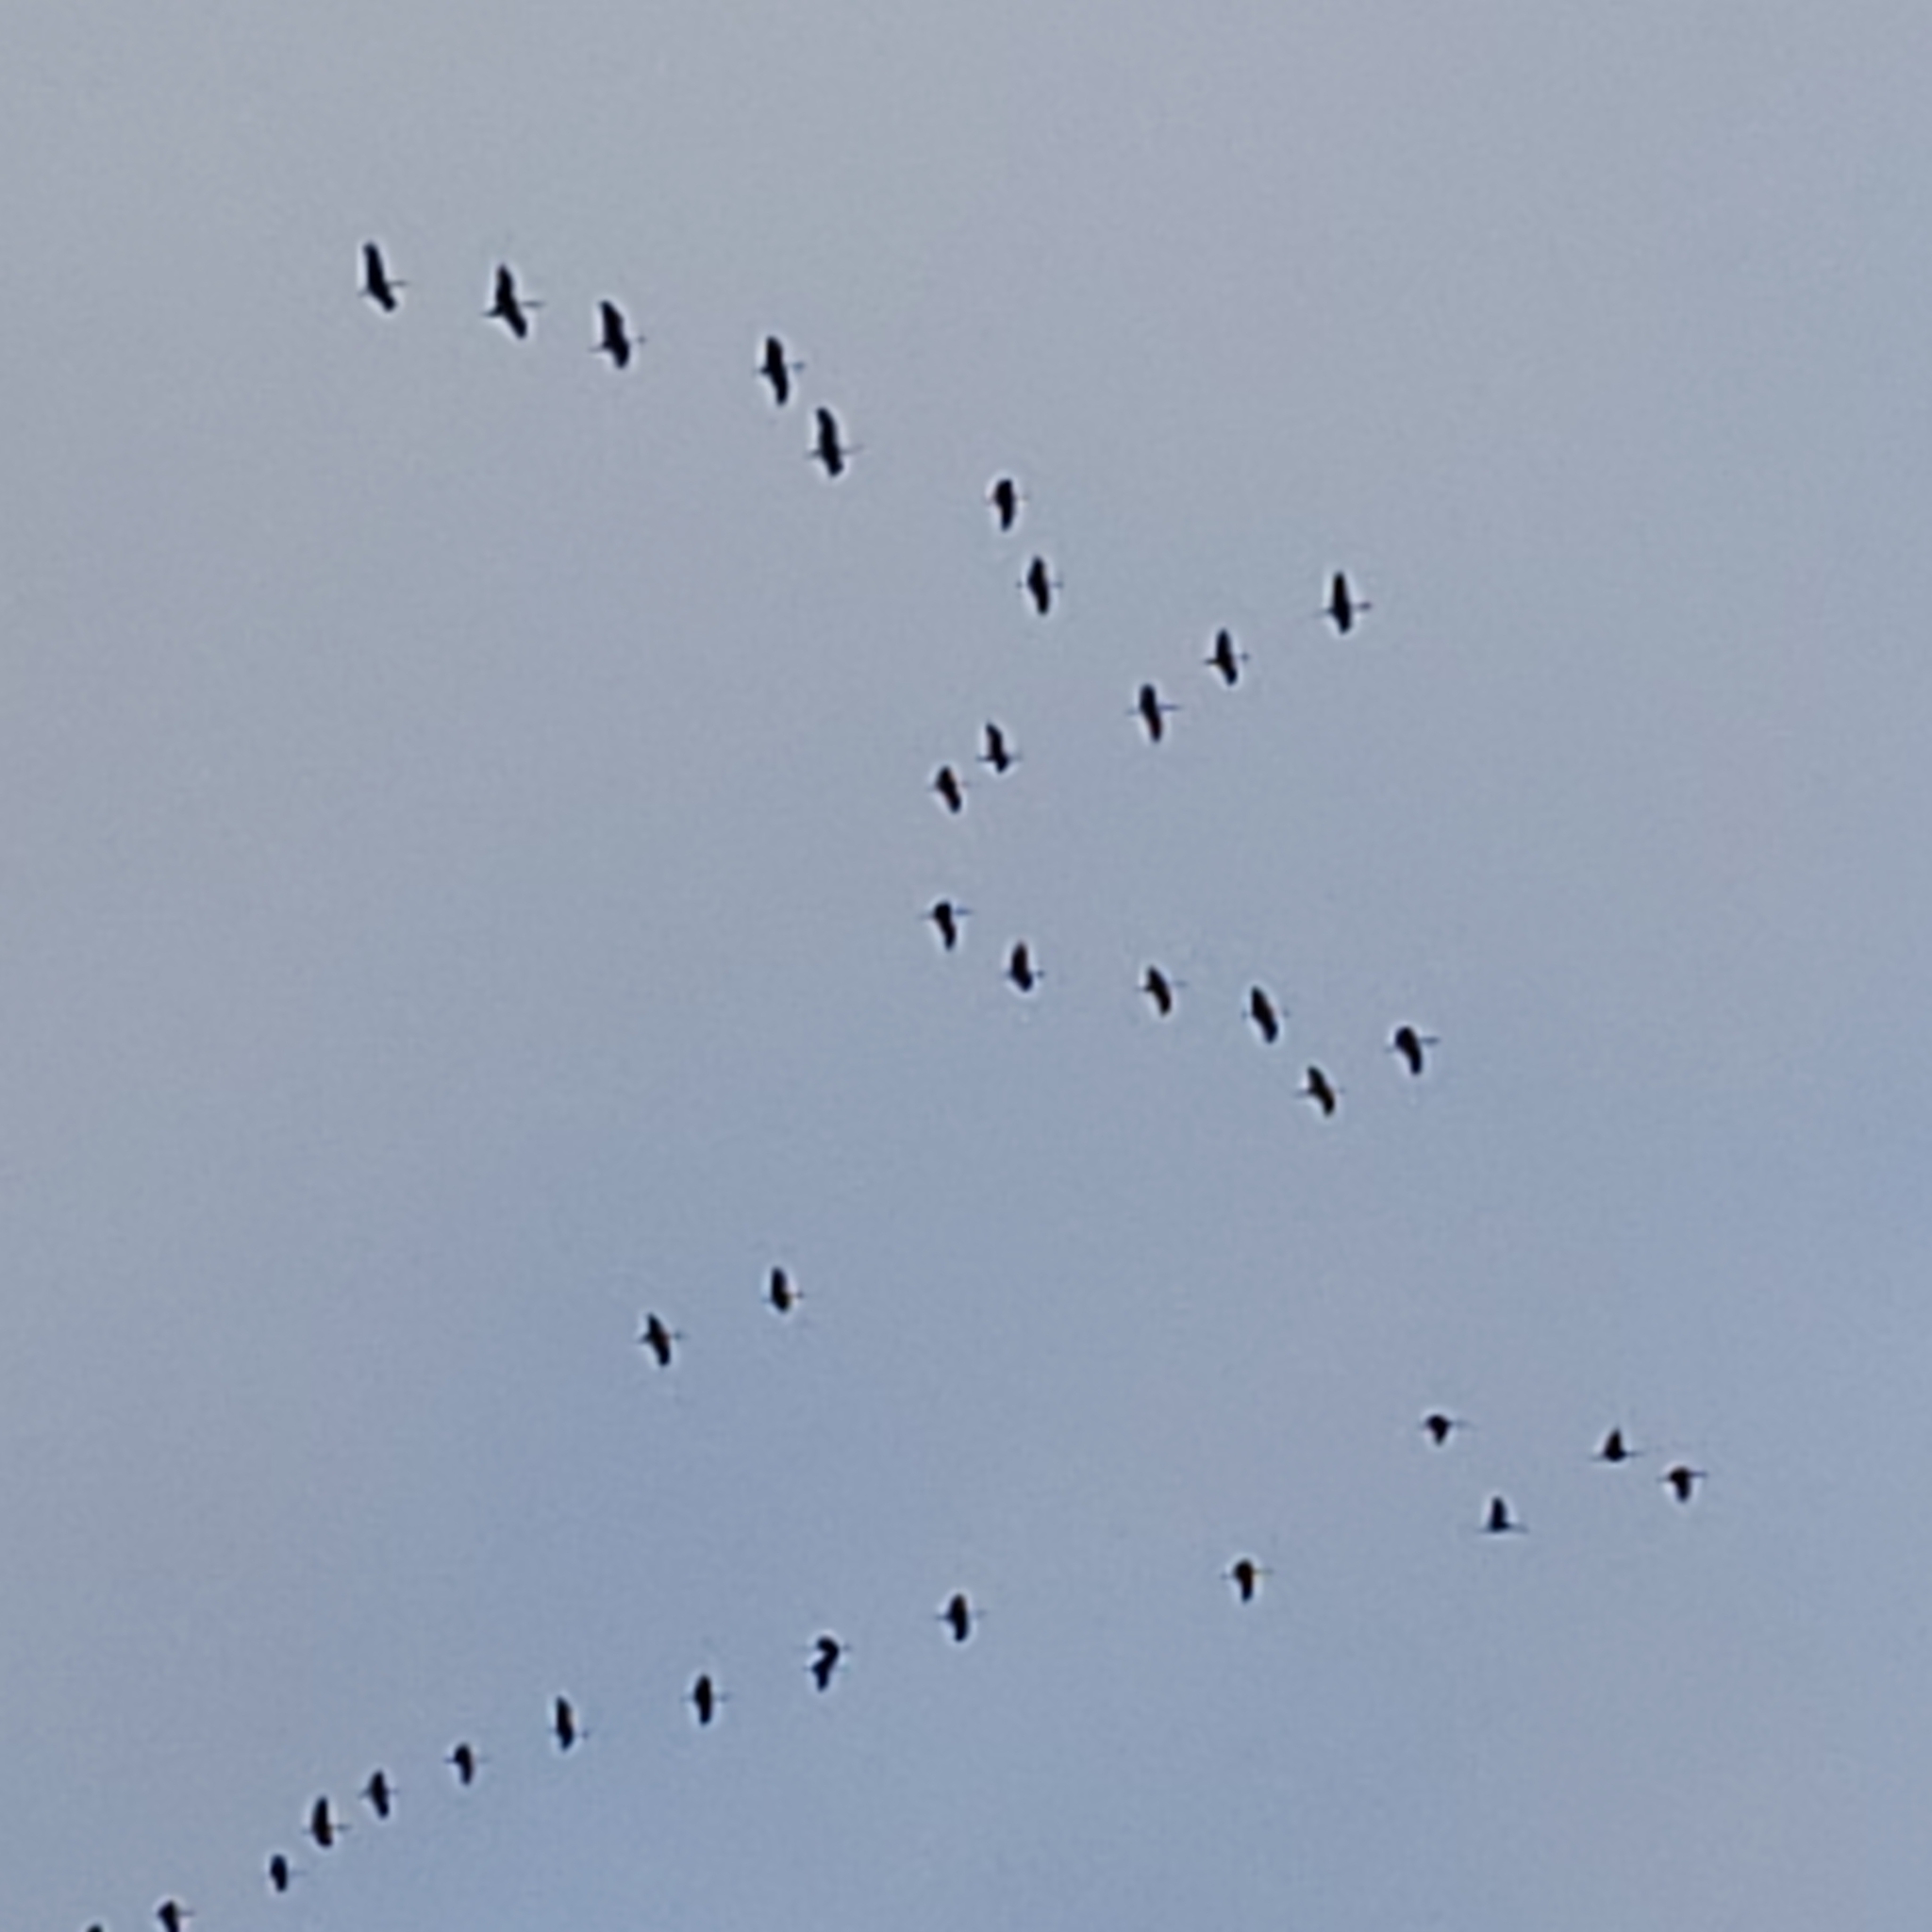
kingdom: Animalia
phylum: Chordata
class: Aves
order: Gruiformes
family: Gruidae
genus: Grus
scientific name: Grus canadensis
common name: Sandhill crane
